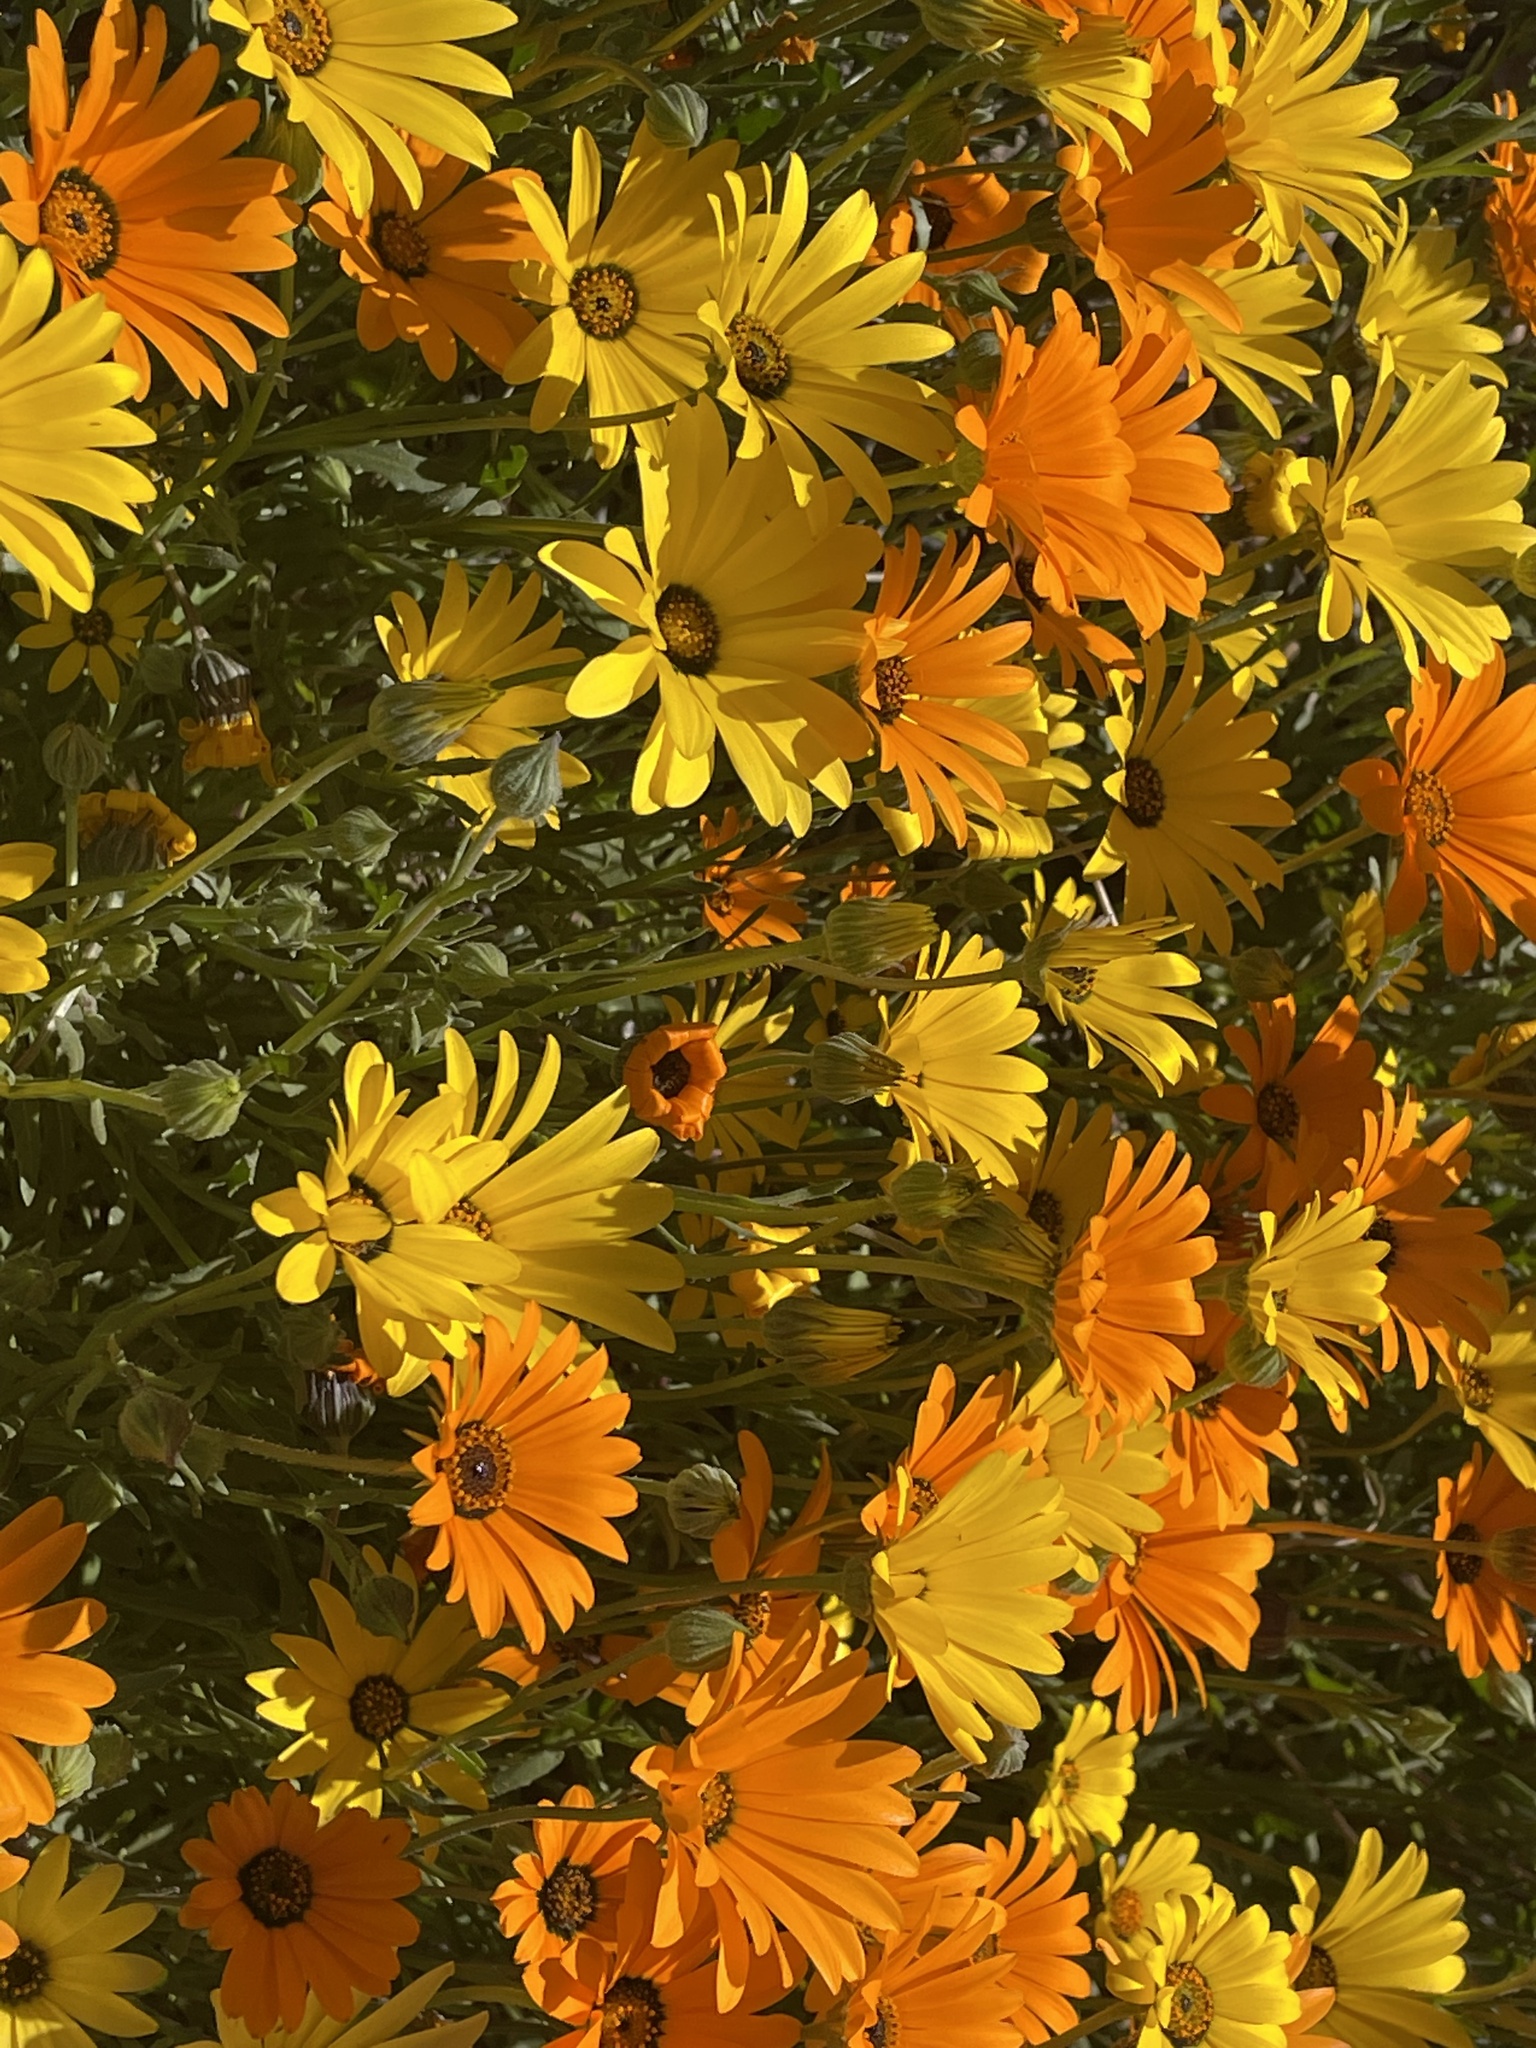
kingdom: Plantae
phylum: Tracheophyta
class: Magnoliopsida
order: Asterales
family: Asteraceae
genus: Dimorphotheca
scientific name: Dimorphotheca sinuata
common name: Glandular cape marigold
